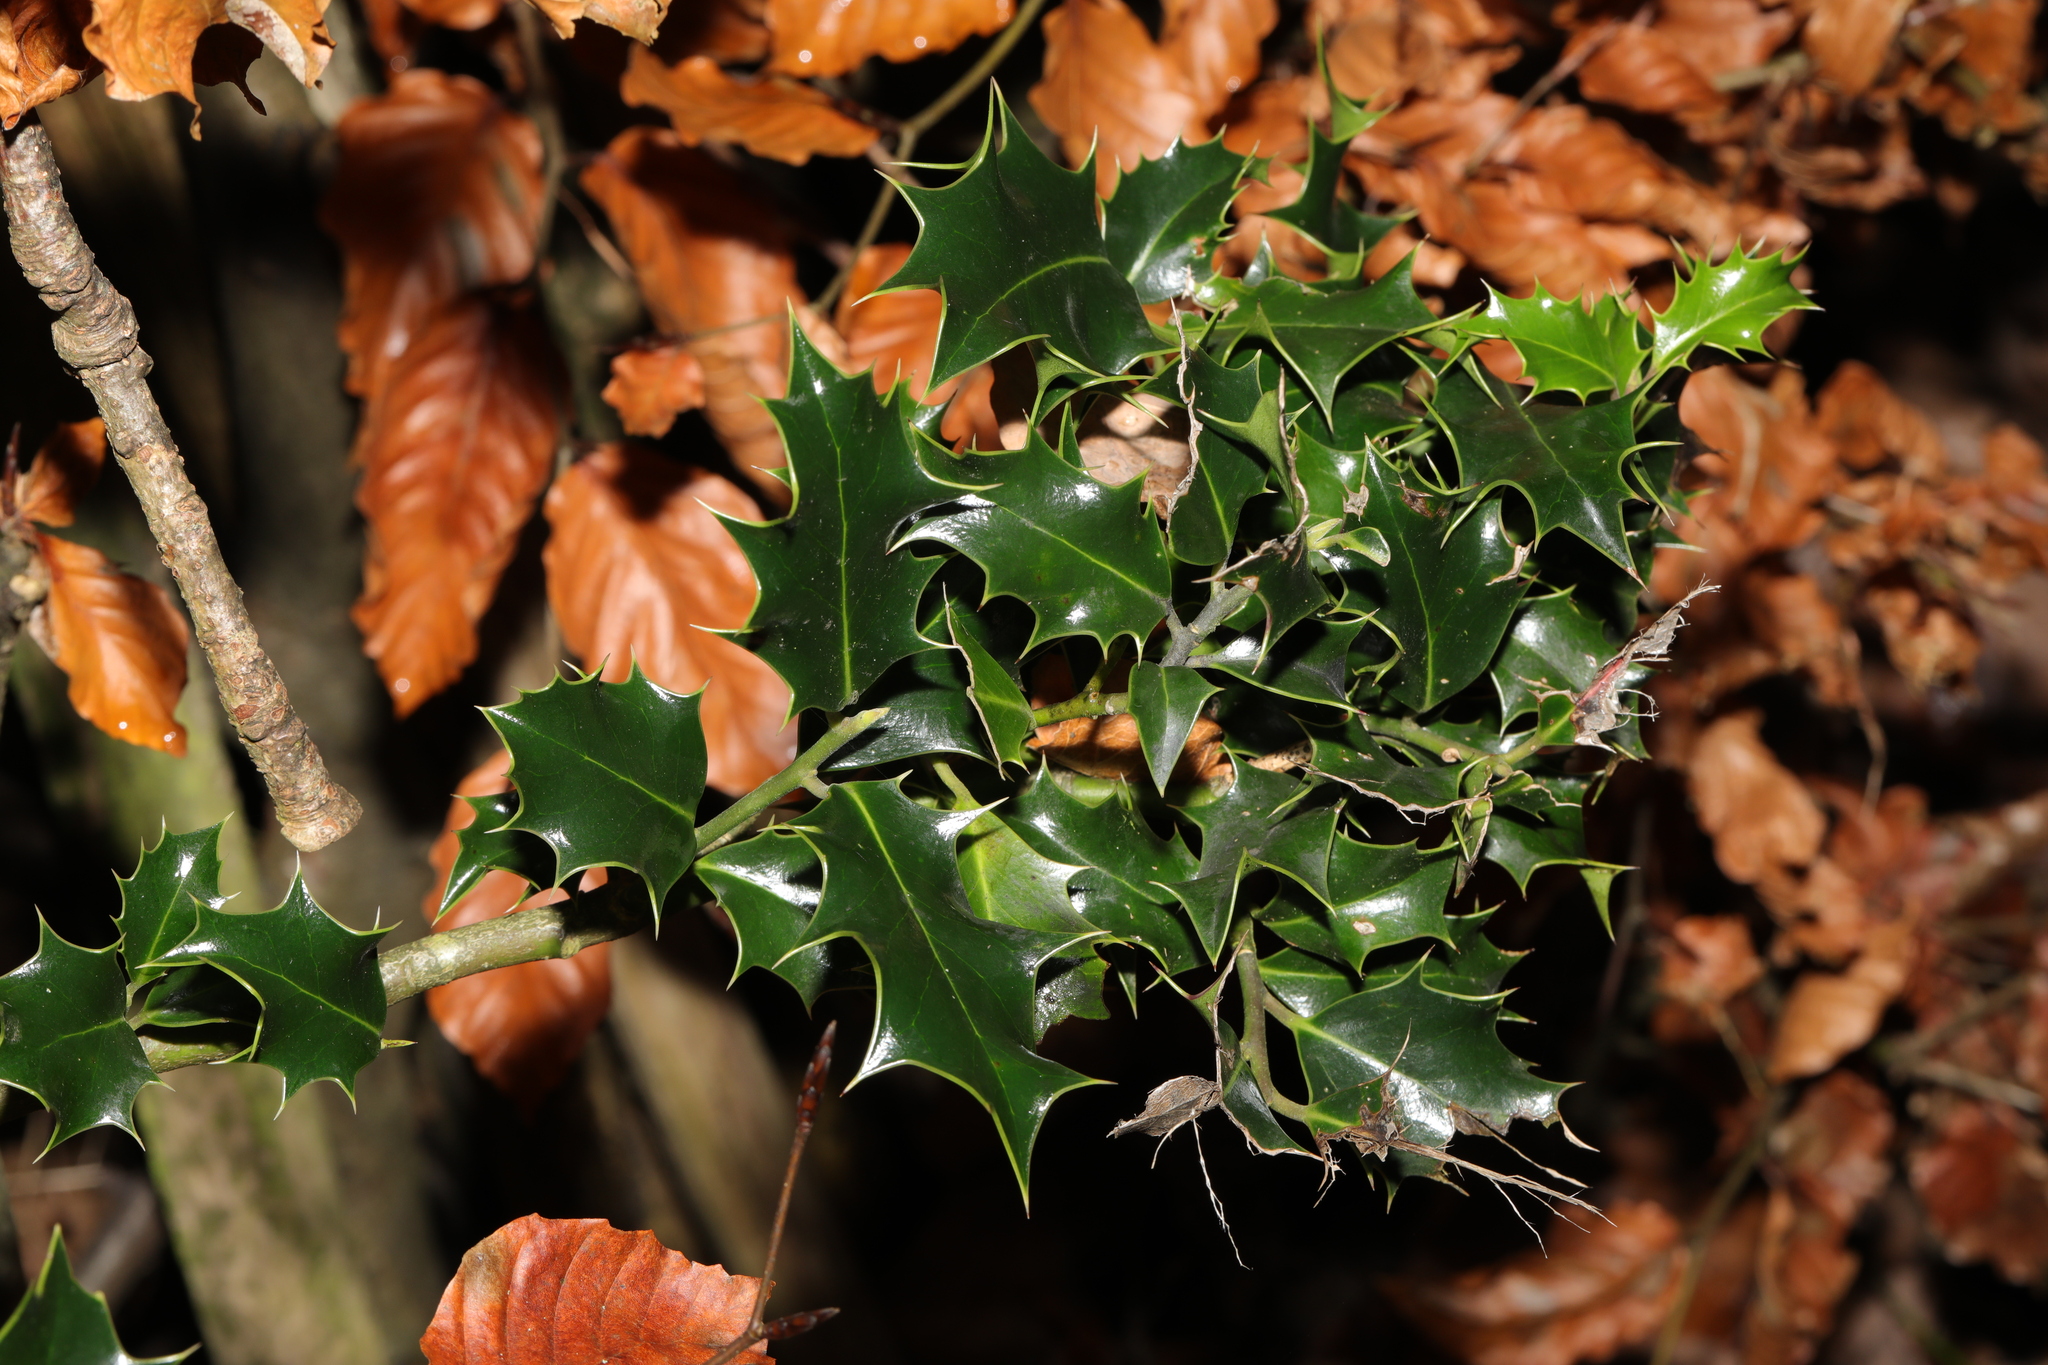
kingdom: Plantae
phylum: Tracheophyta
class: Magnoliopsida
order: Aquifoliales
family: Aquifoliaceae
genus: Ilex
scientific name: Ilex aquifolium
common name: English holly
